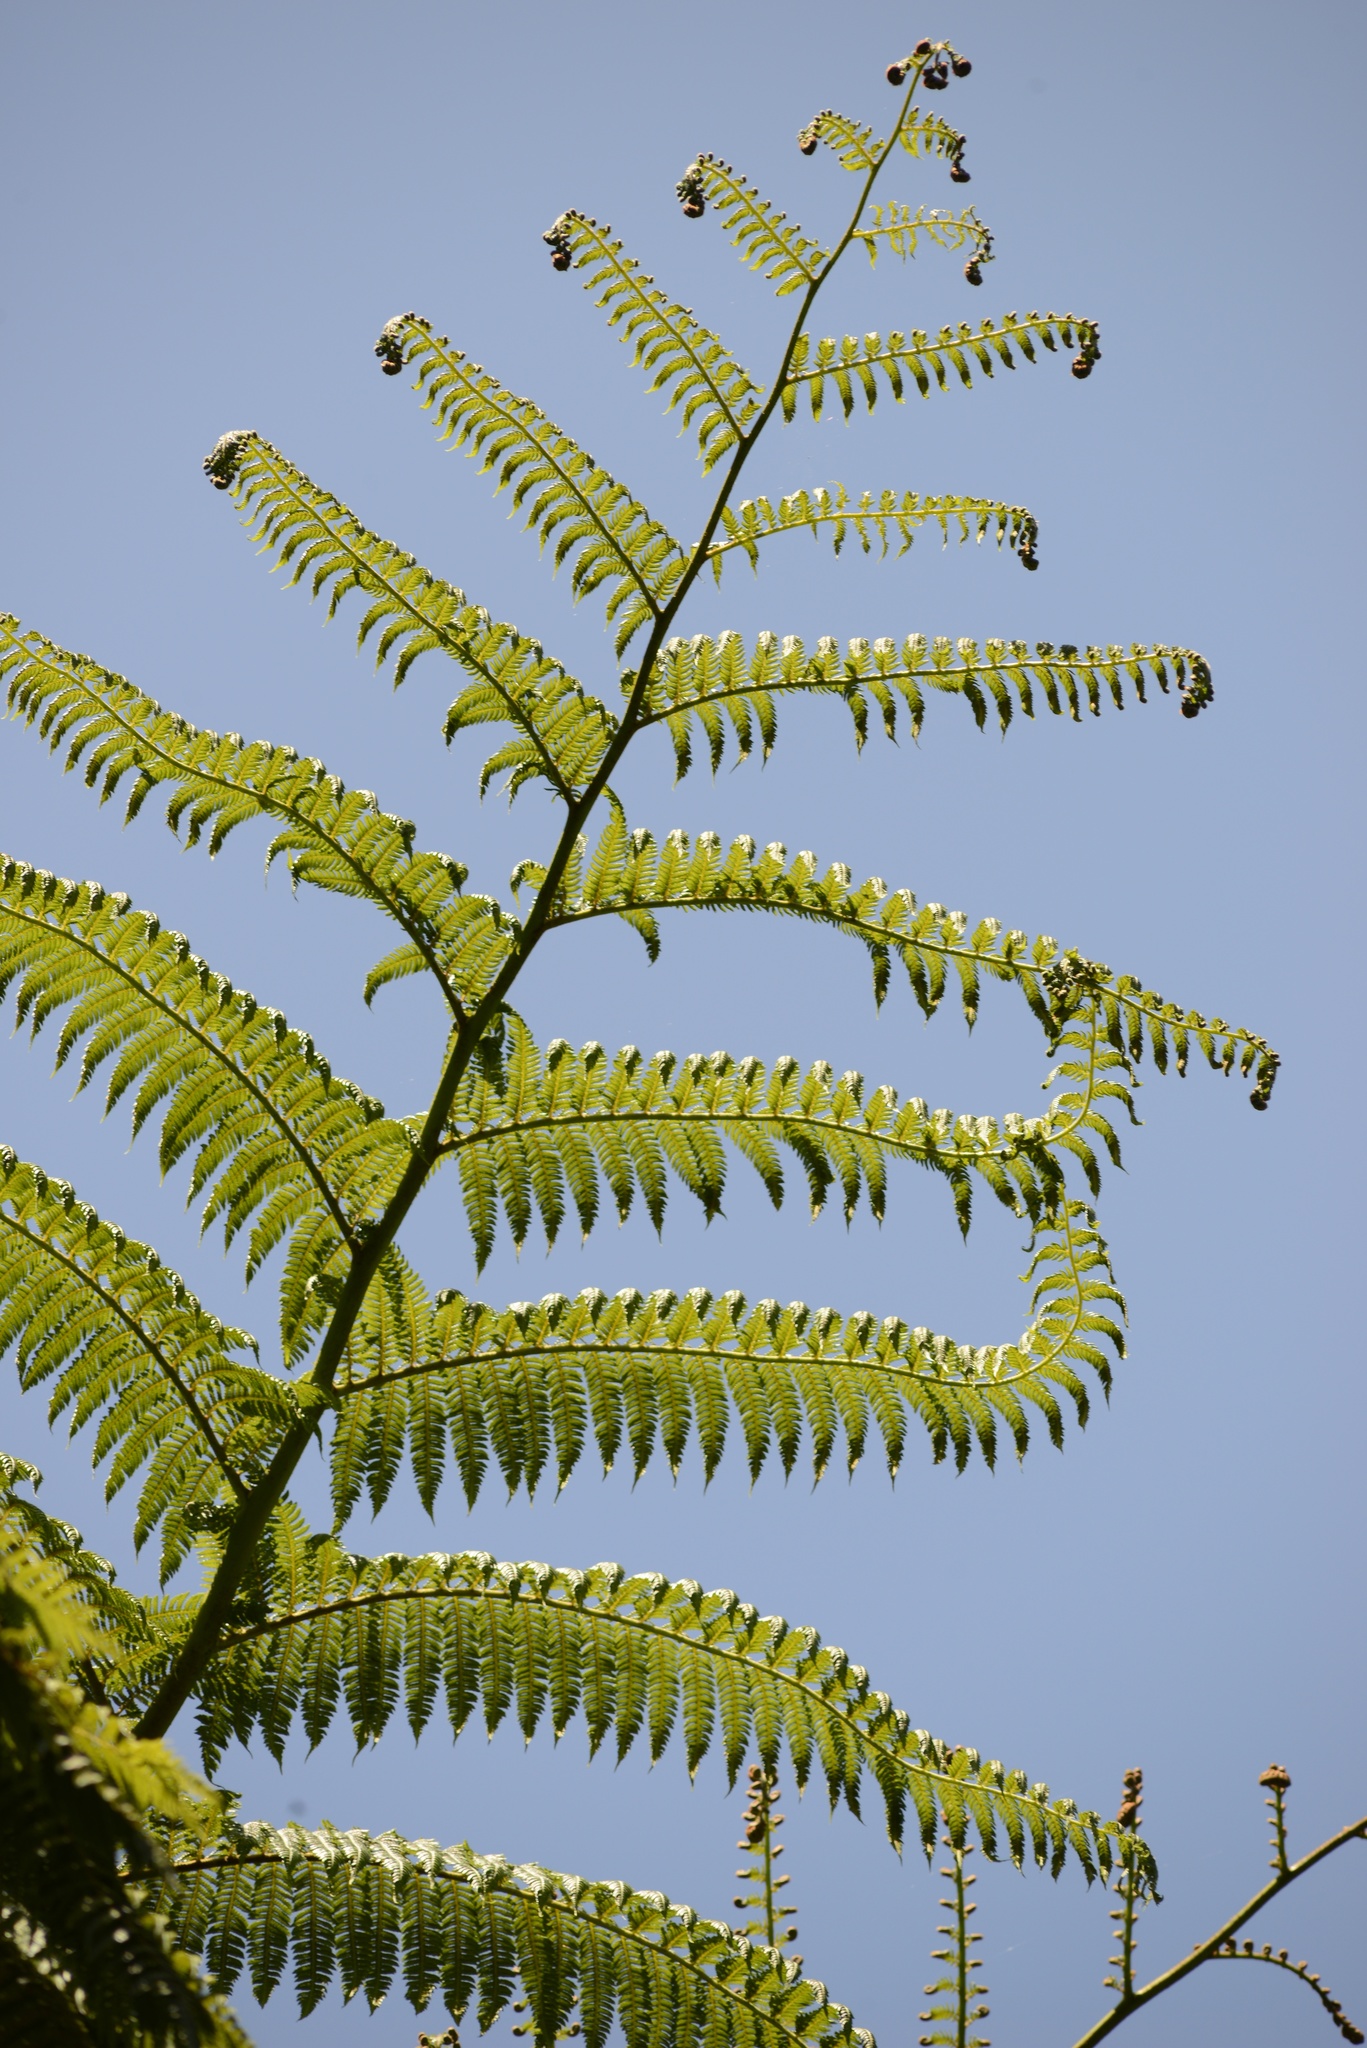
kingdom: Plantae
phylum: Tracheophyta
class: Polypodiopsida
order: Cyatheales
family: Cyatheaceae
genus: Sphaeropteris
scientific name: Sphaeropteris medullaris
